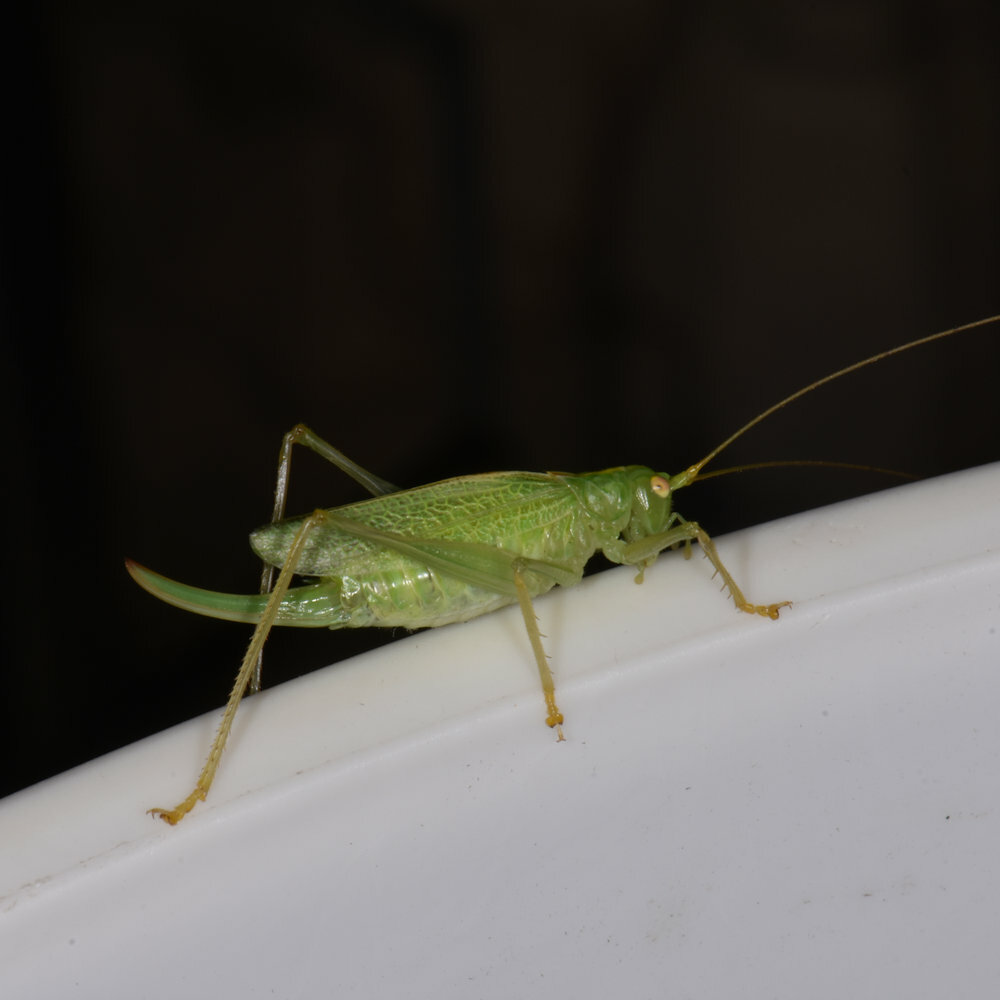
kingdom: Animalia
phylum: Arthropoda
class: Insecta
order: Orthoptera
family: Tettigoniidae
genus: Meconema
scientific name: Meconema thalassinum
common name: Oak bush-cricket
